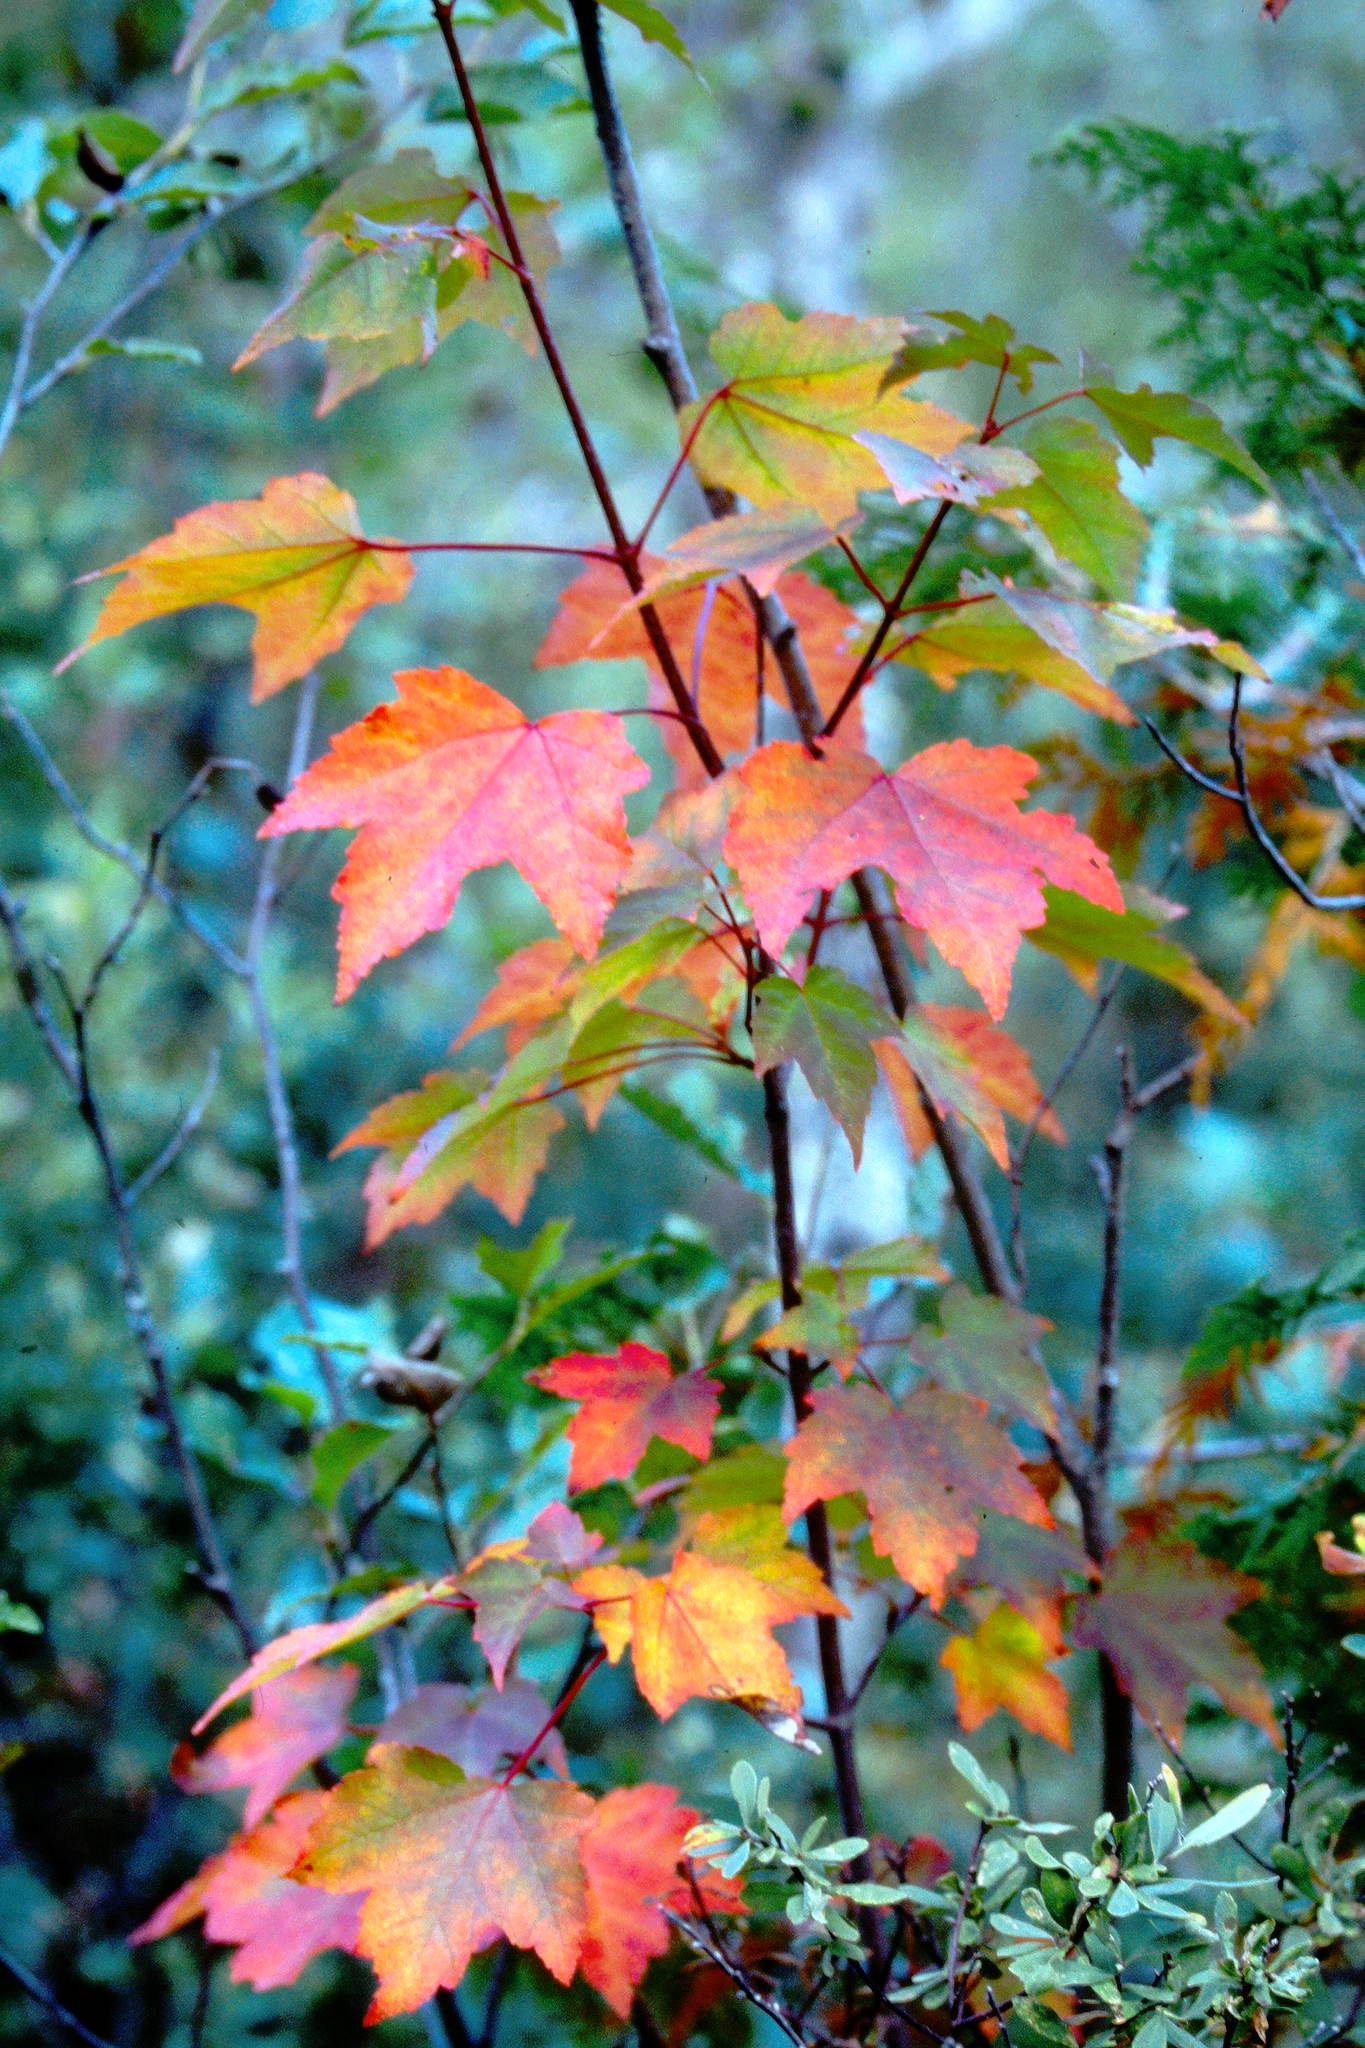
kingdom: Plantae
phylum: Tracheophyta
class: Magnoliopsida
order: Sapindales
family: Sapindaceae
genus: Acer
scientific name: Acer rubrum
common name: Red maple
